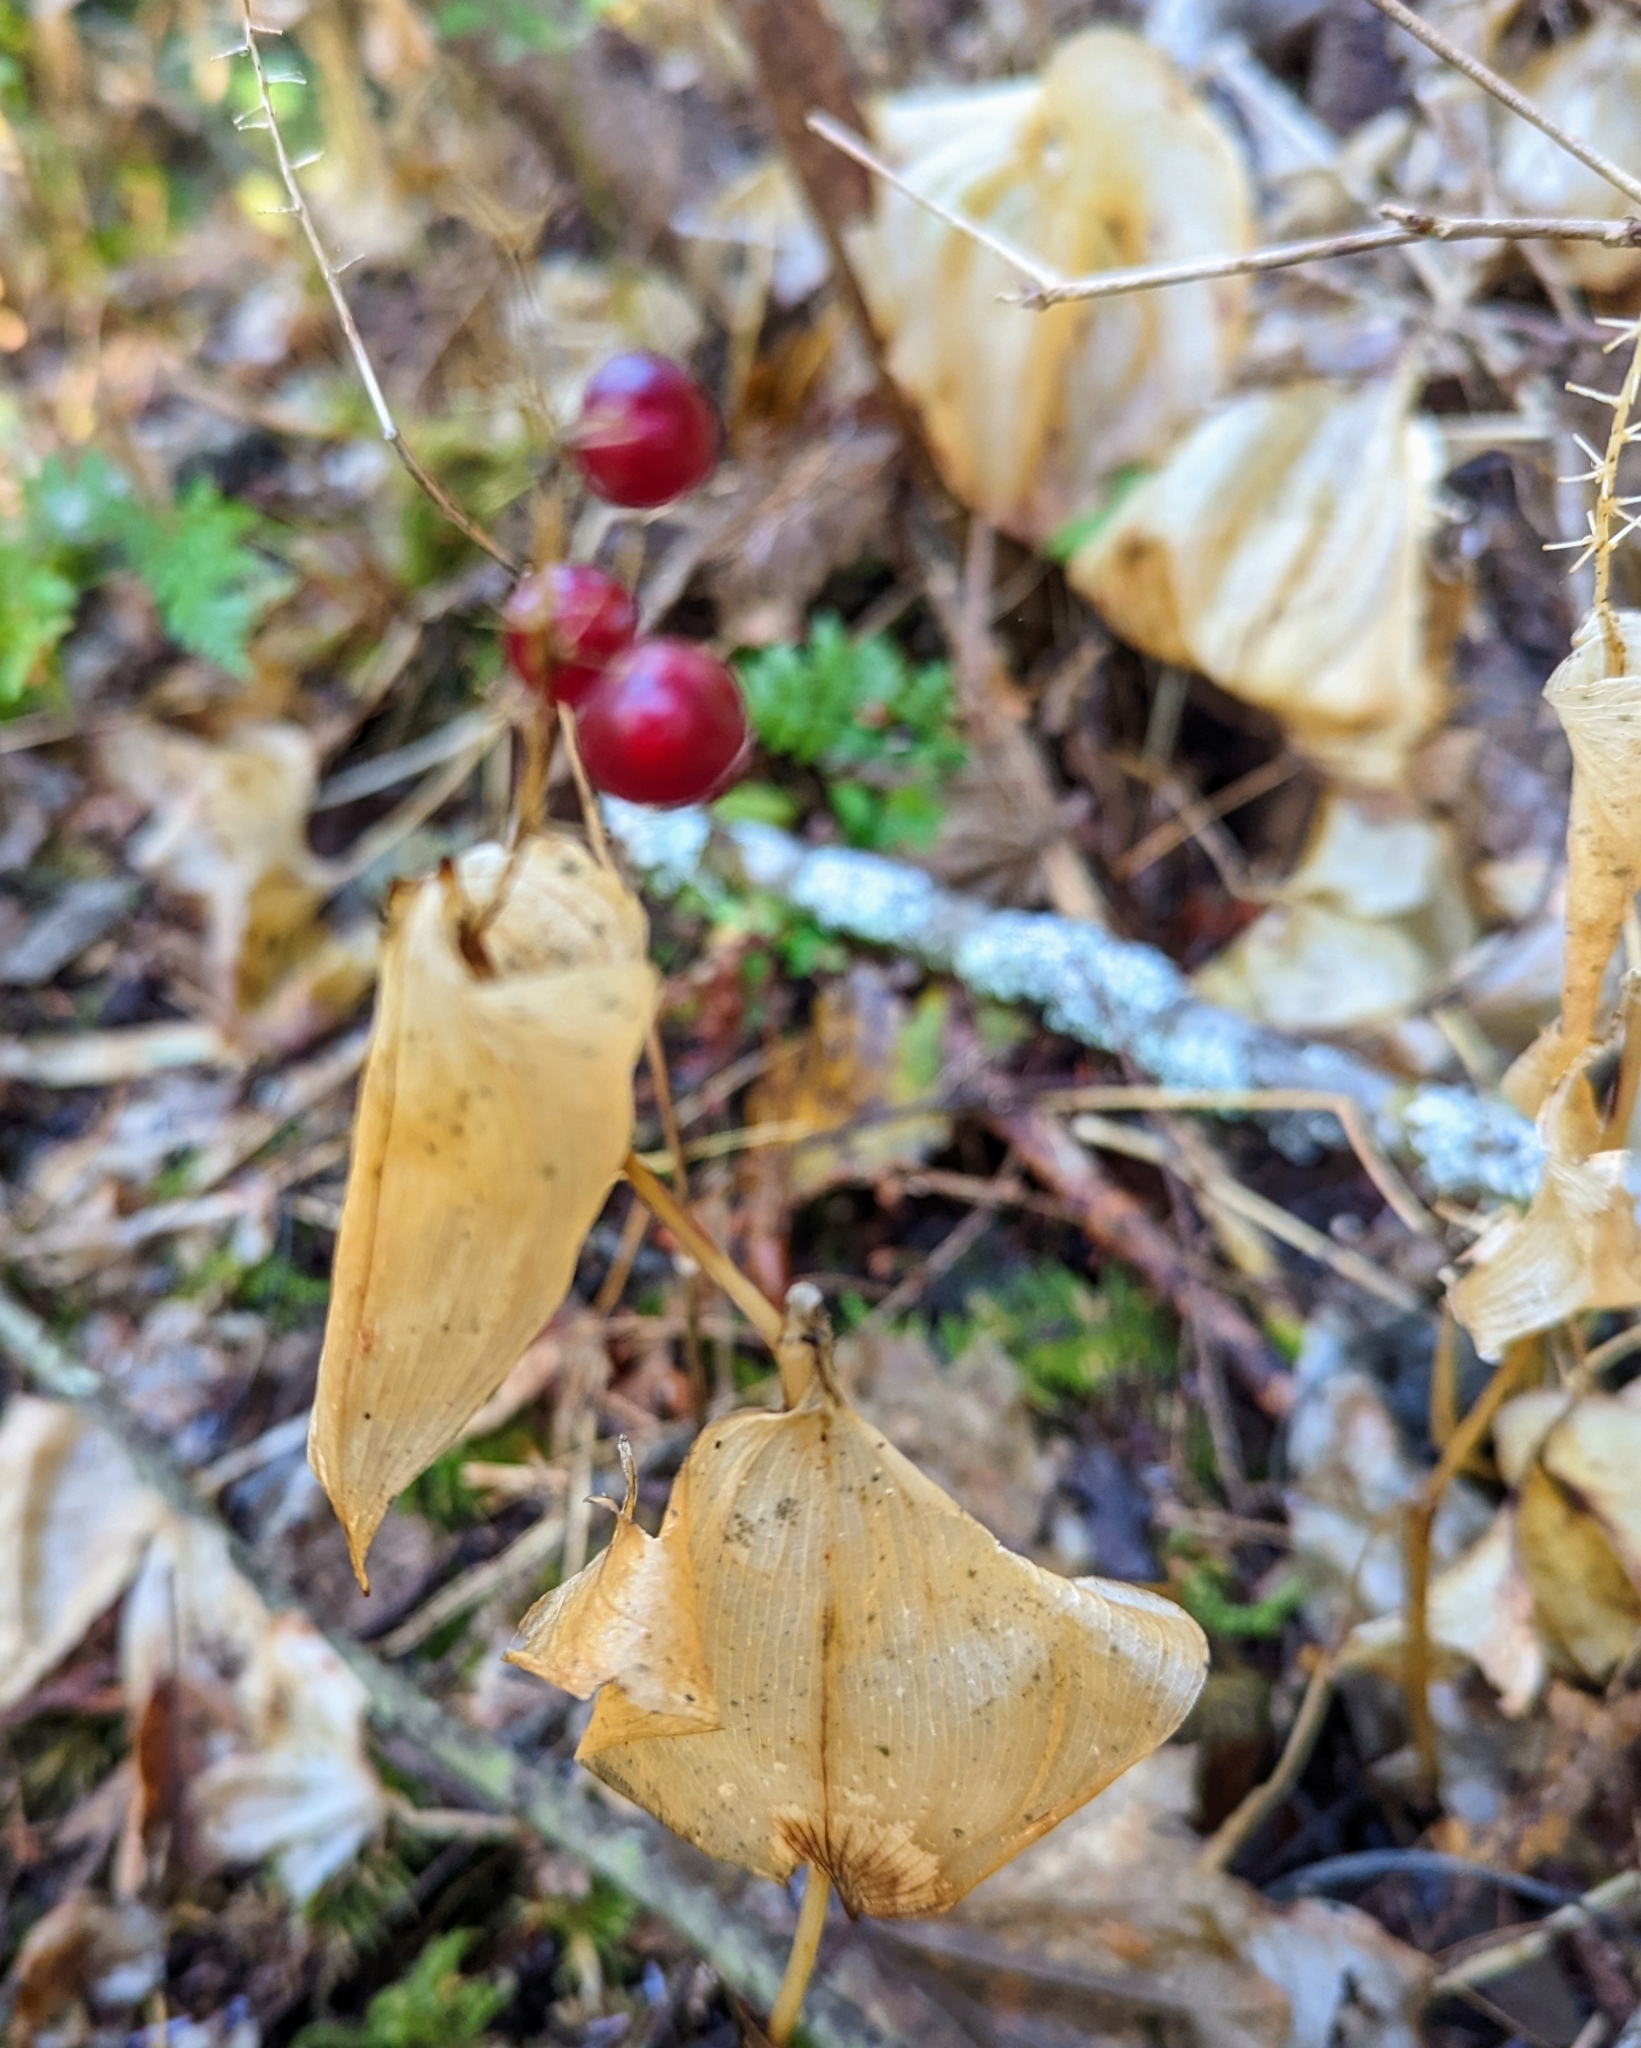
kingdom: Plantae
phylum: Tracheophyta
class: Liliopsida
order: Asparagales
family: Asparagaceae
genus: Maianthemum
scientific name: Maianthemum dilatatum
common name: False lily-of-the-valley
